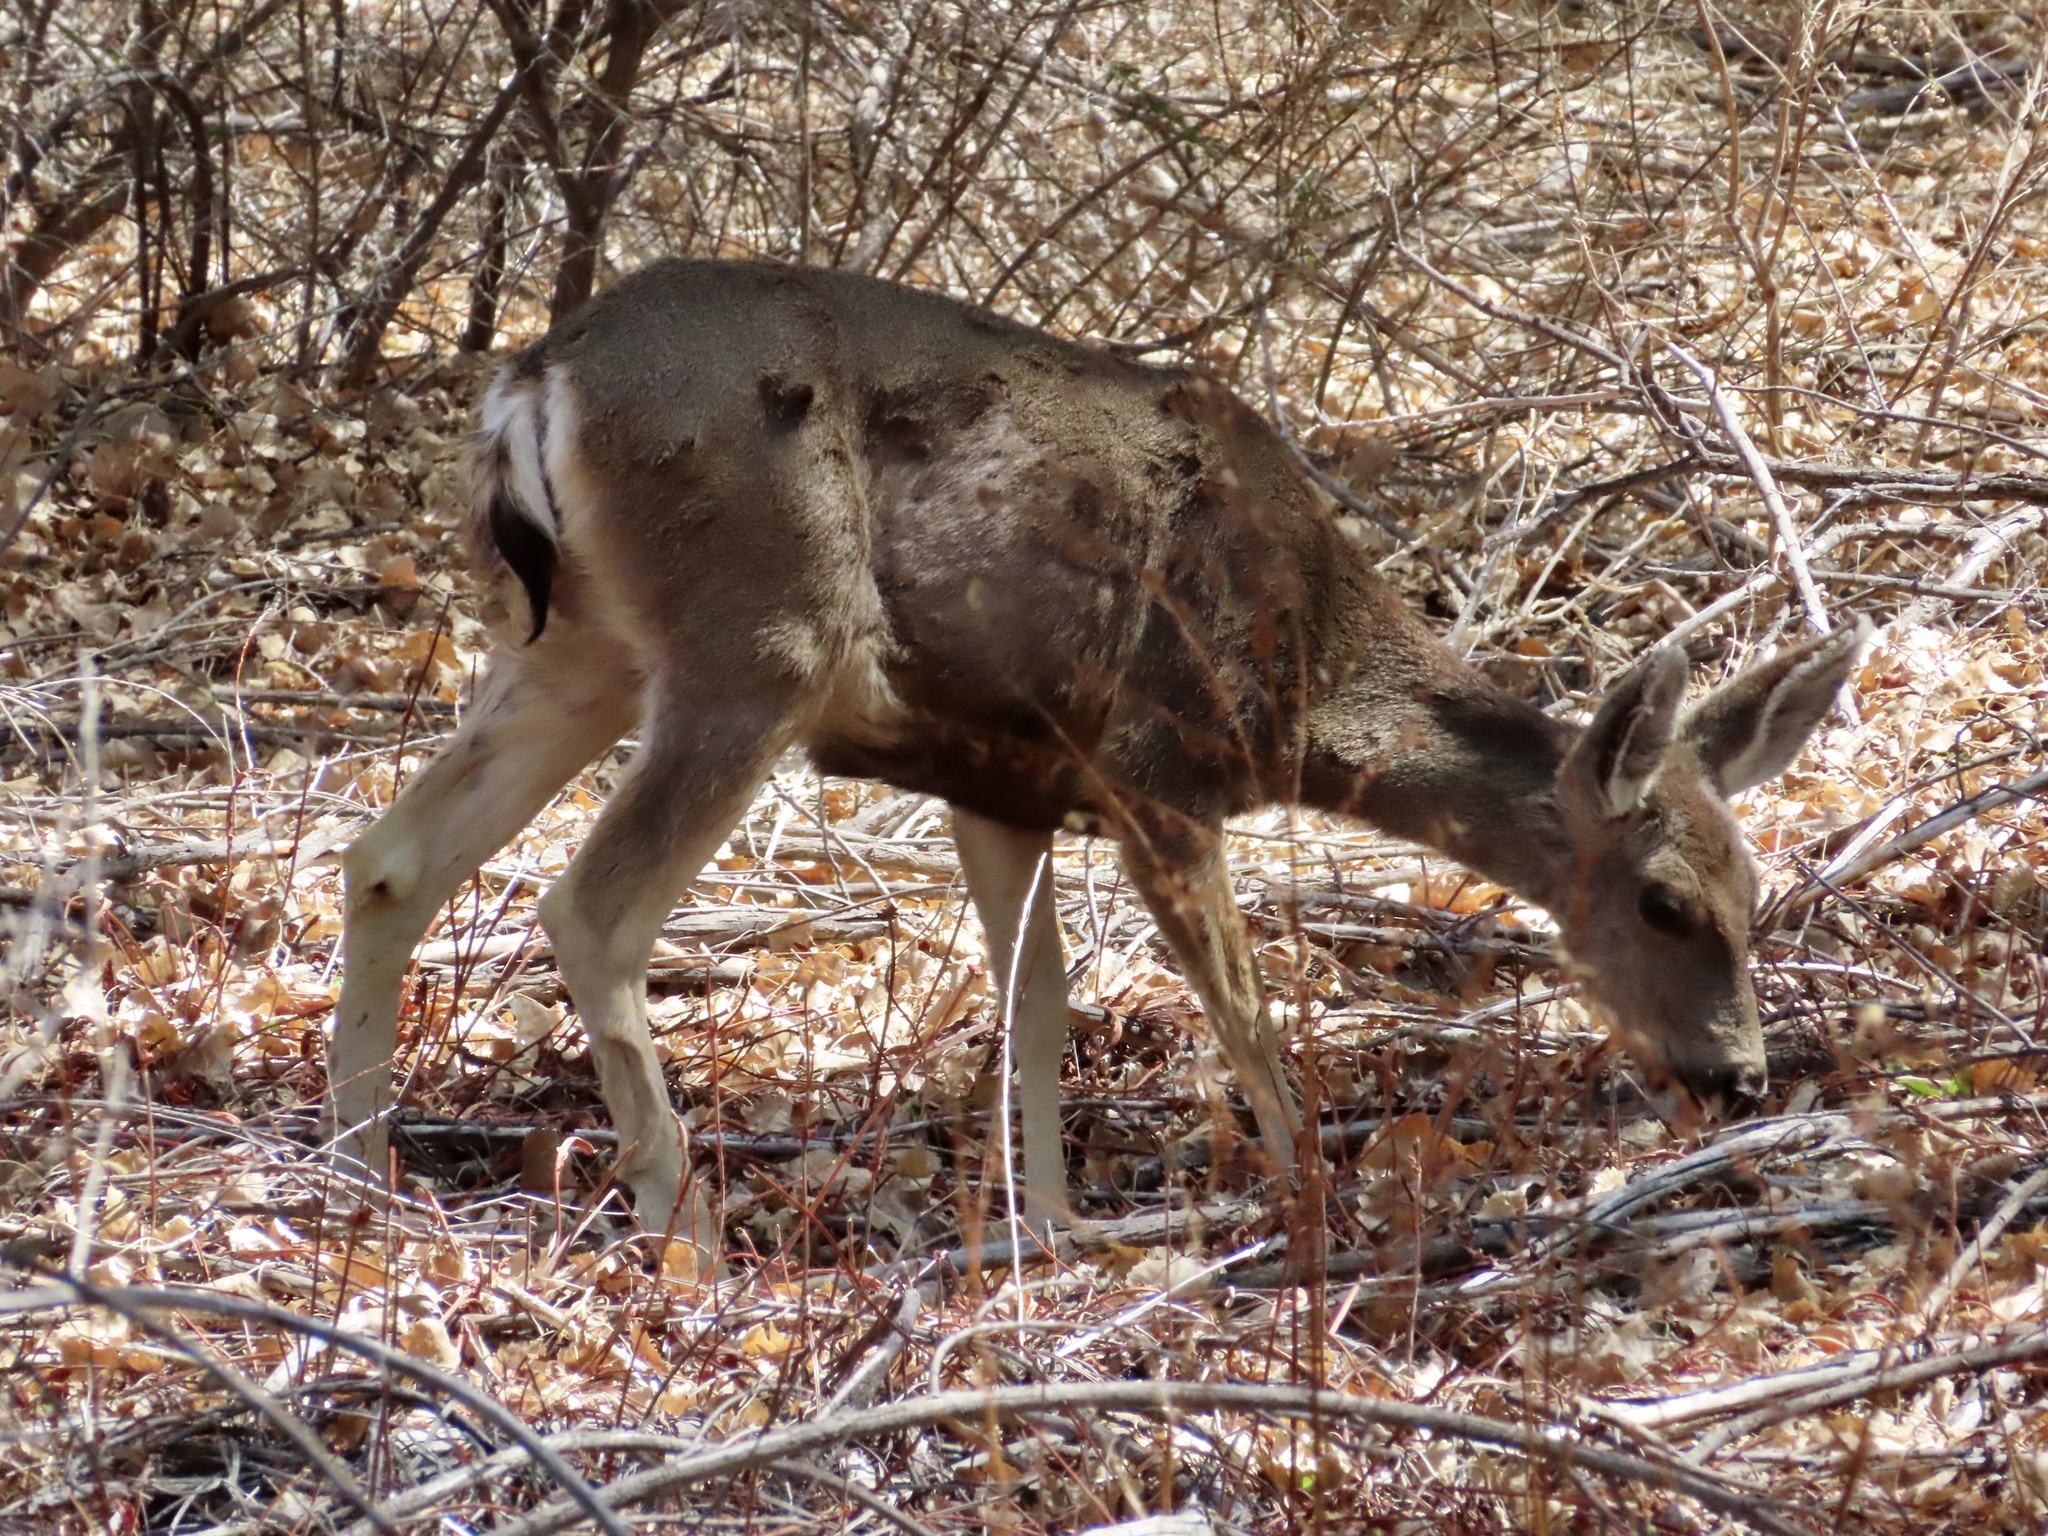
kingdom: Animalia
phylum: Chordata
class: Mammalia
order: Artiodactyla
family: Cervidae
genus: Odocoileus
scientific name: Odocoileus hemionus
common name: Mule deer
